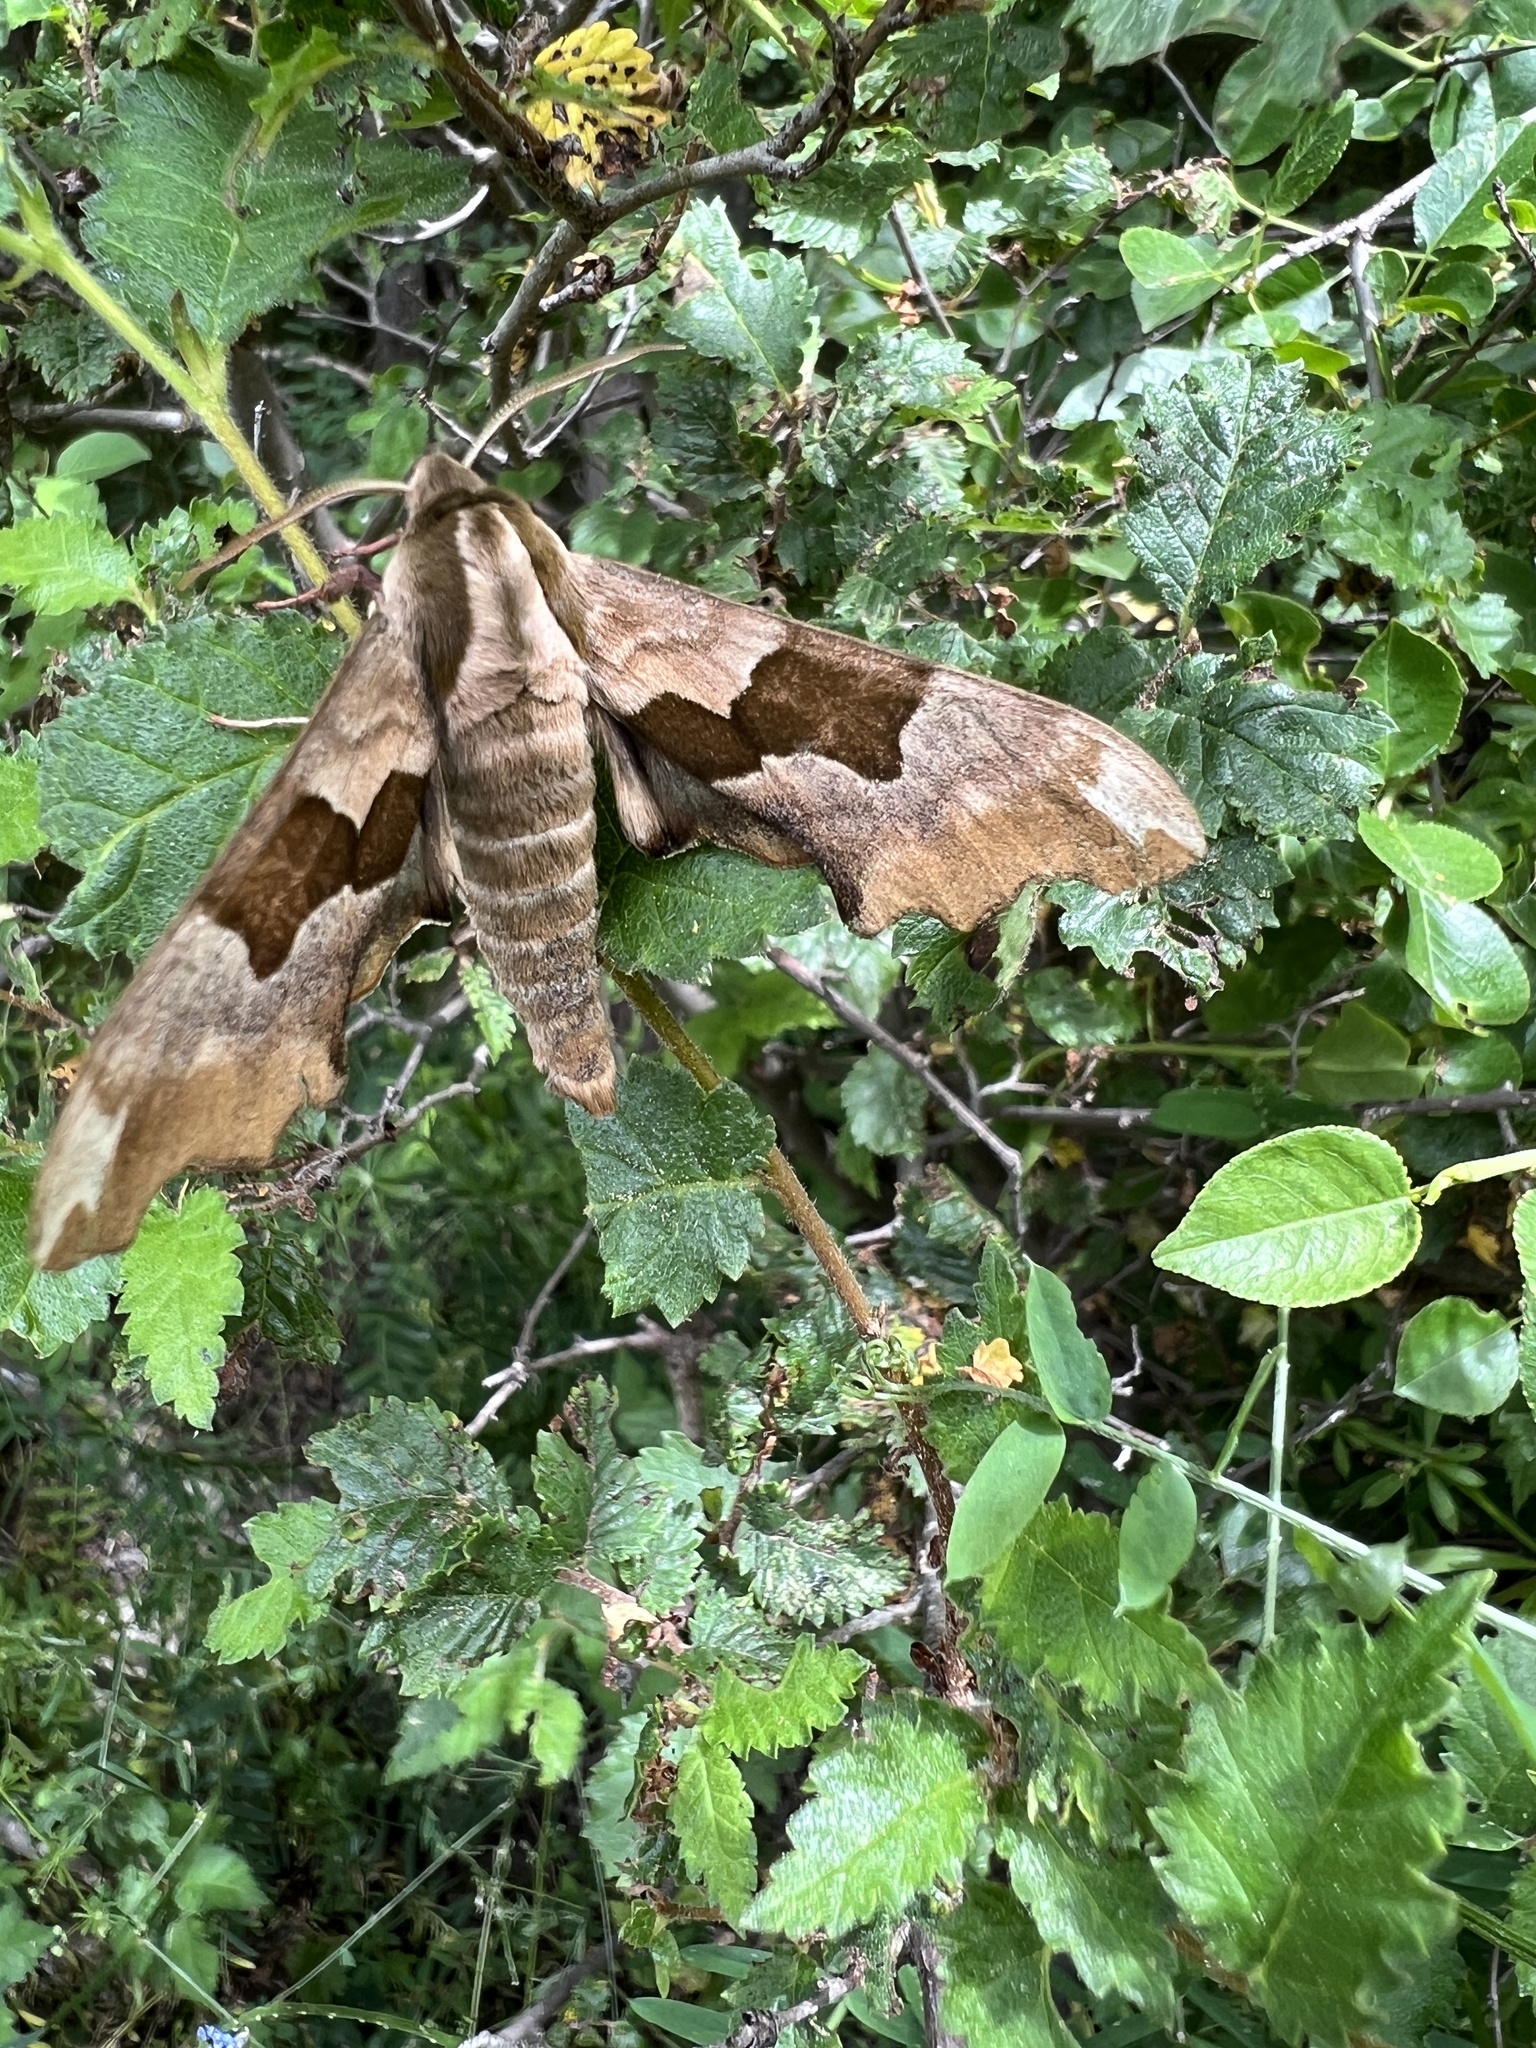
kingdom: Animalia
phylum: Arthropoda
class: Insecta
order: Lepidoptera
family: Sphingidae
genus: Mimas
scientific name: Mimas tiliae
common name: Lime hawk-moth
